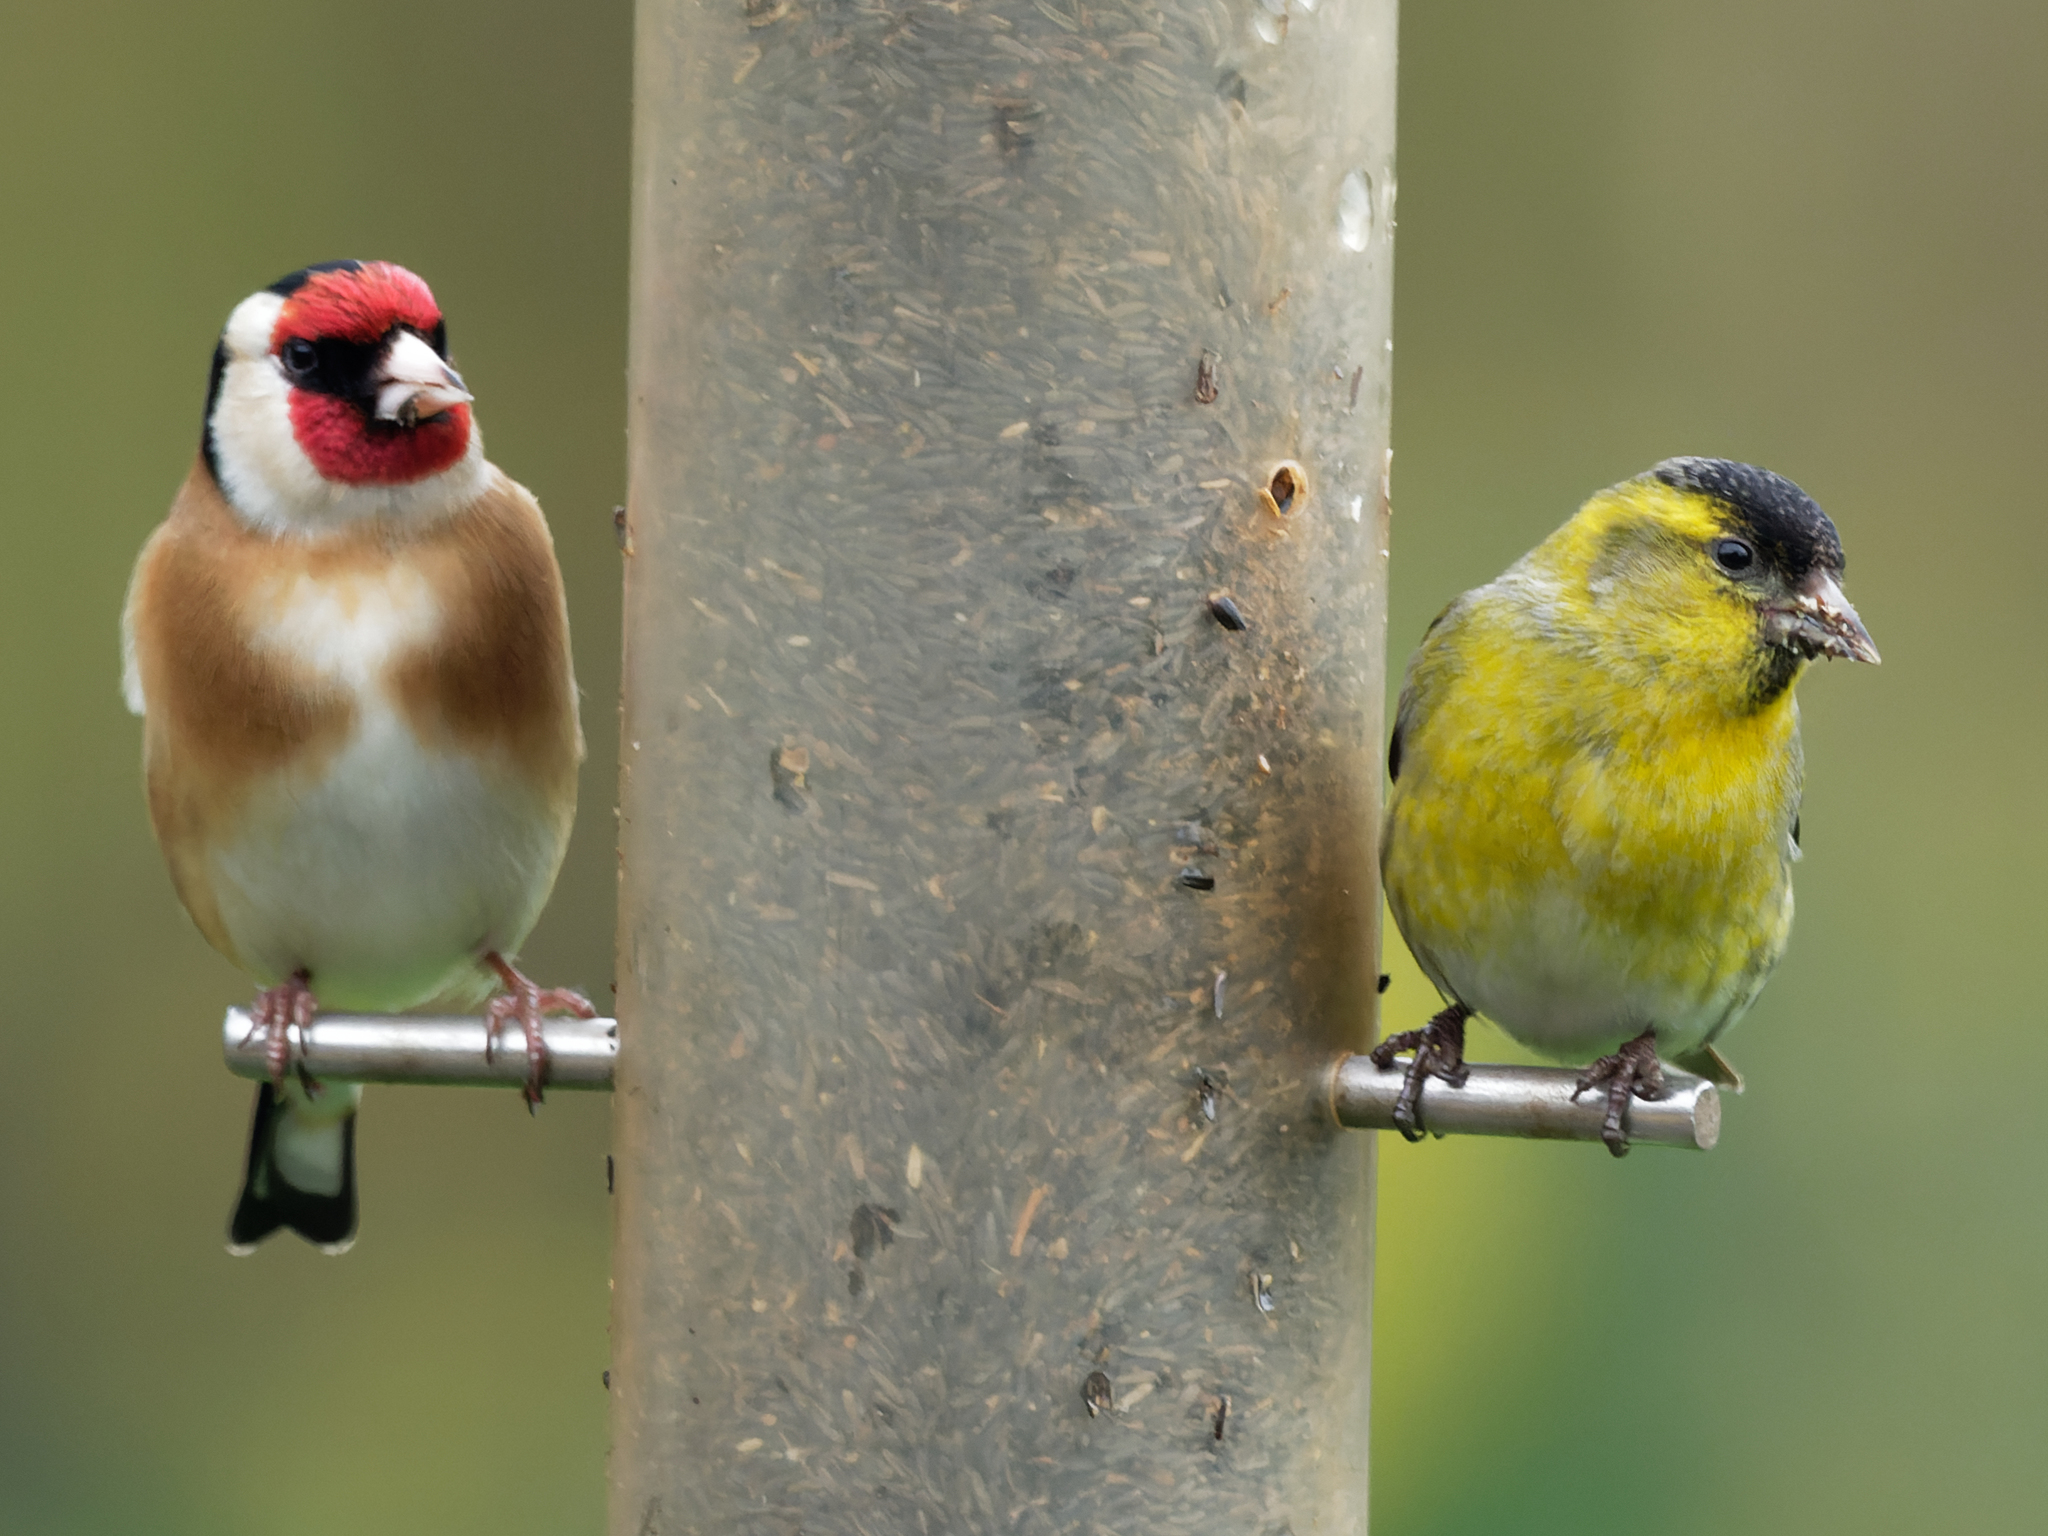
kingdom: Animalia
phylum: Chordata
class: Aves
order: Passeriformes
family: Fringillidae
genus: Spinus
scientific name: Spinus spinus
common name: Eurasian siskin
